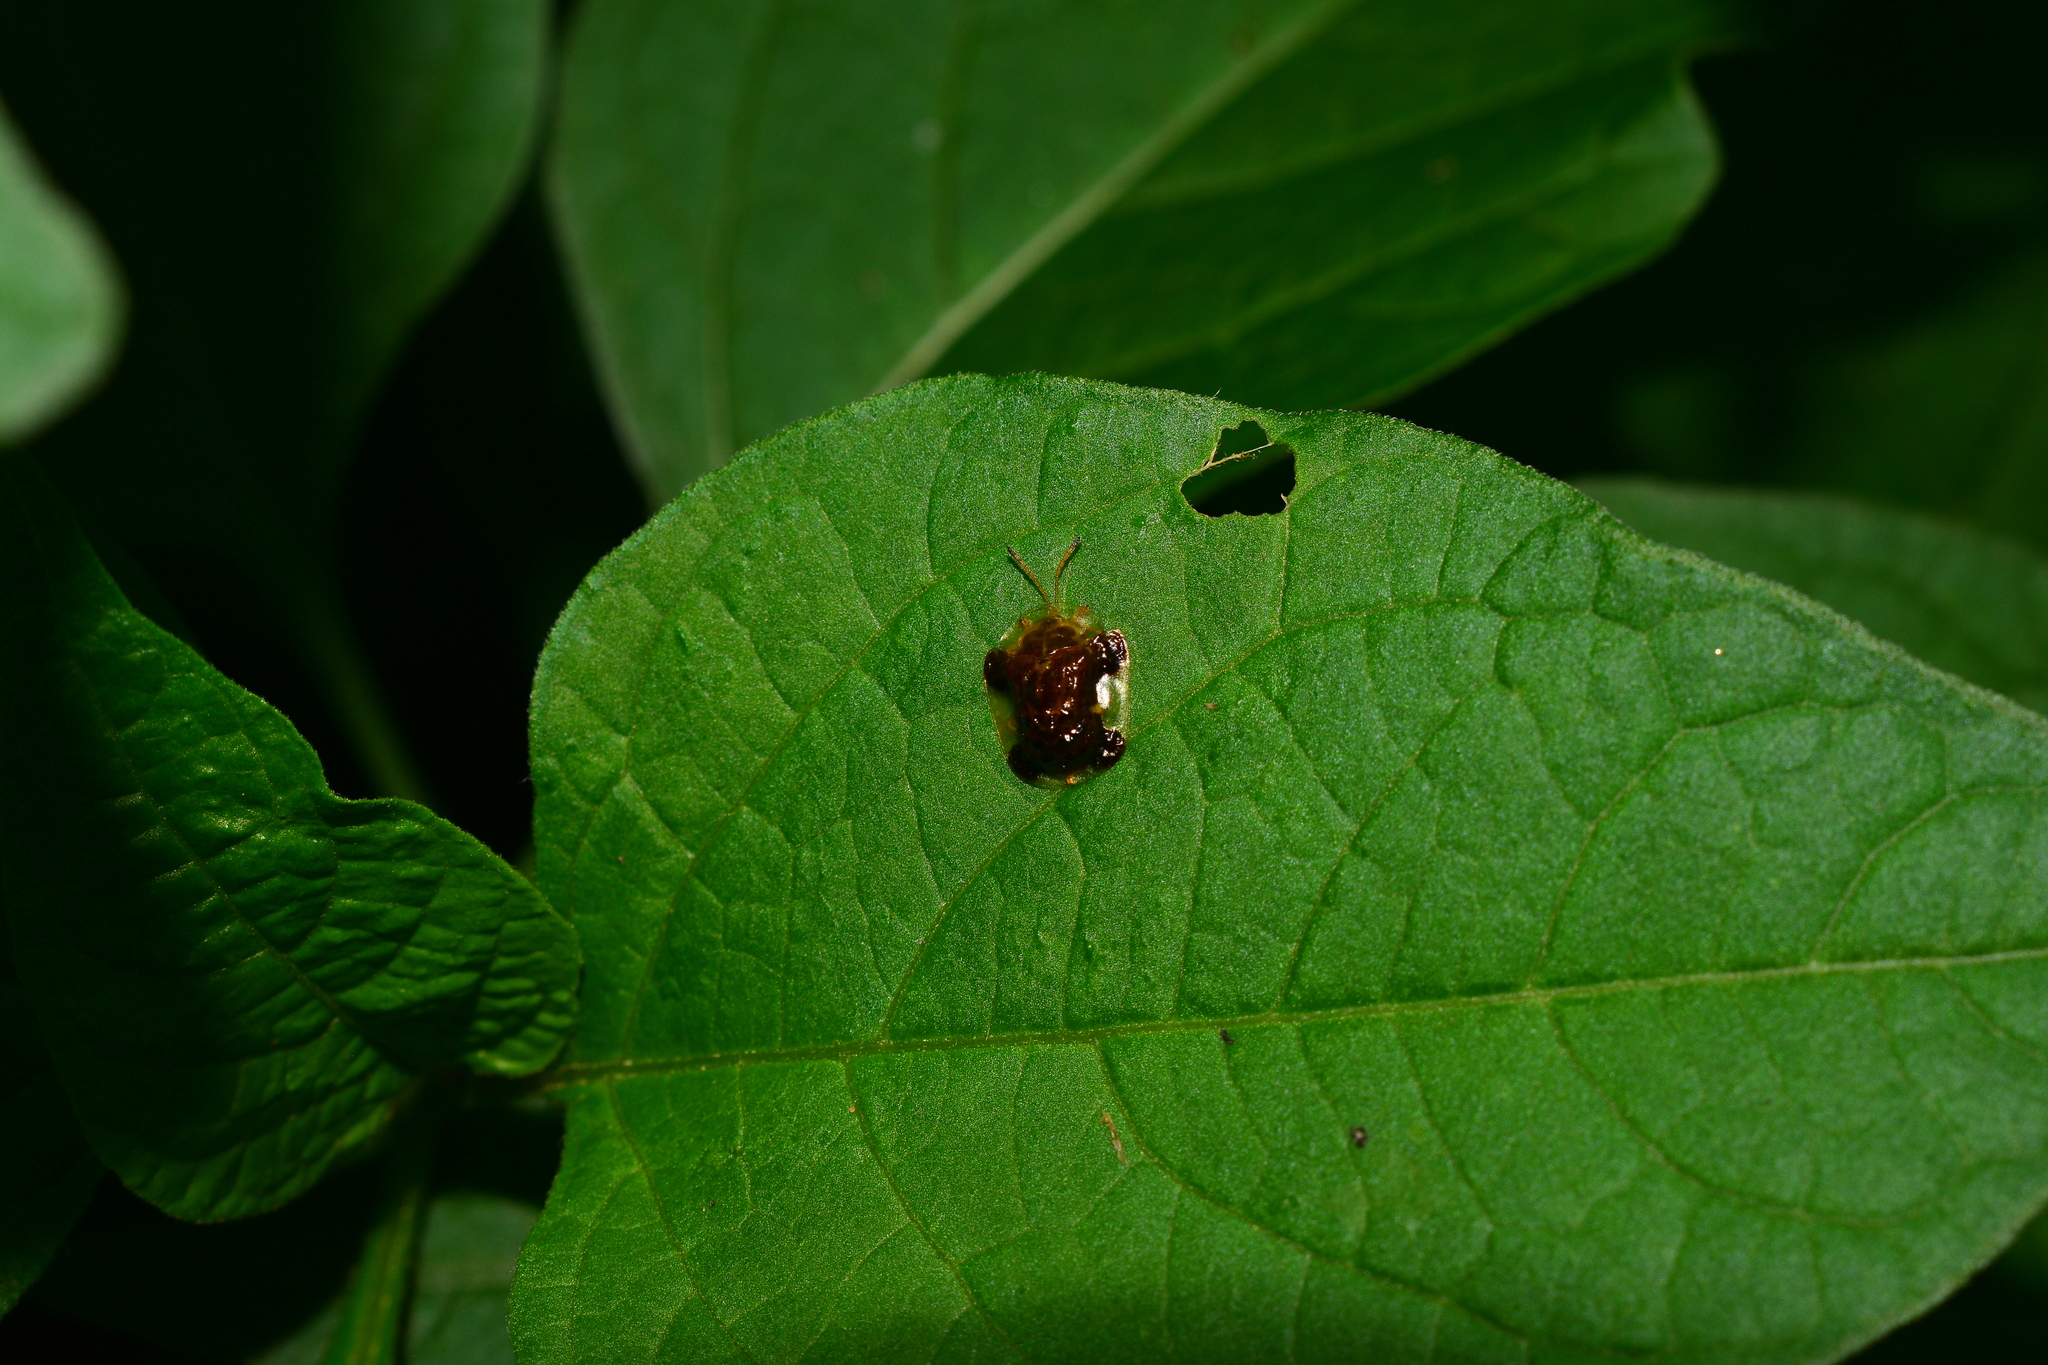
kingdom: Animalia
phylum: Arthropoda
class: Insecta
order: Coleoptera
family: Chrysomelidae
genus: Helocassis
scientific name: Helocassis clavata
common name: Clavate tortoise beetle
